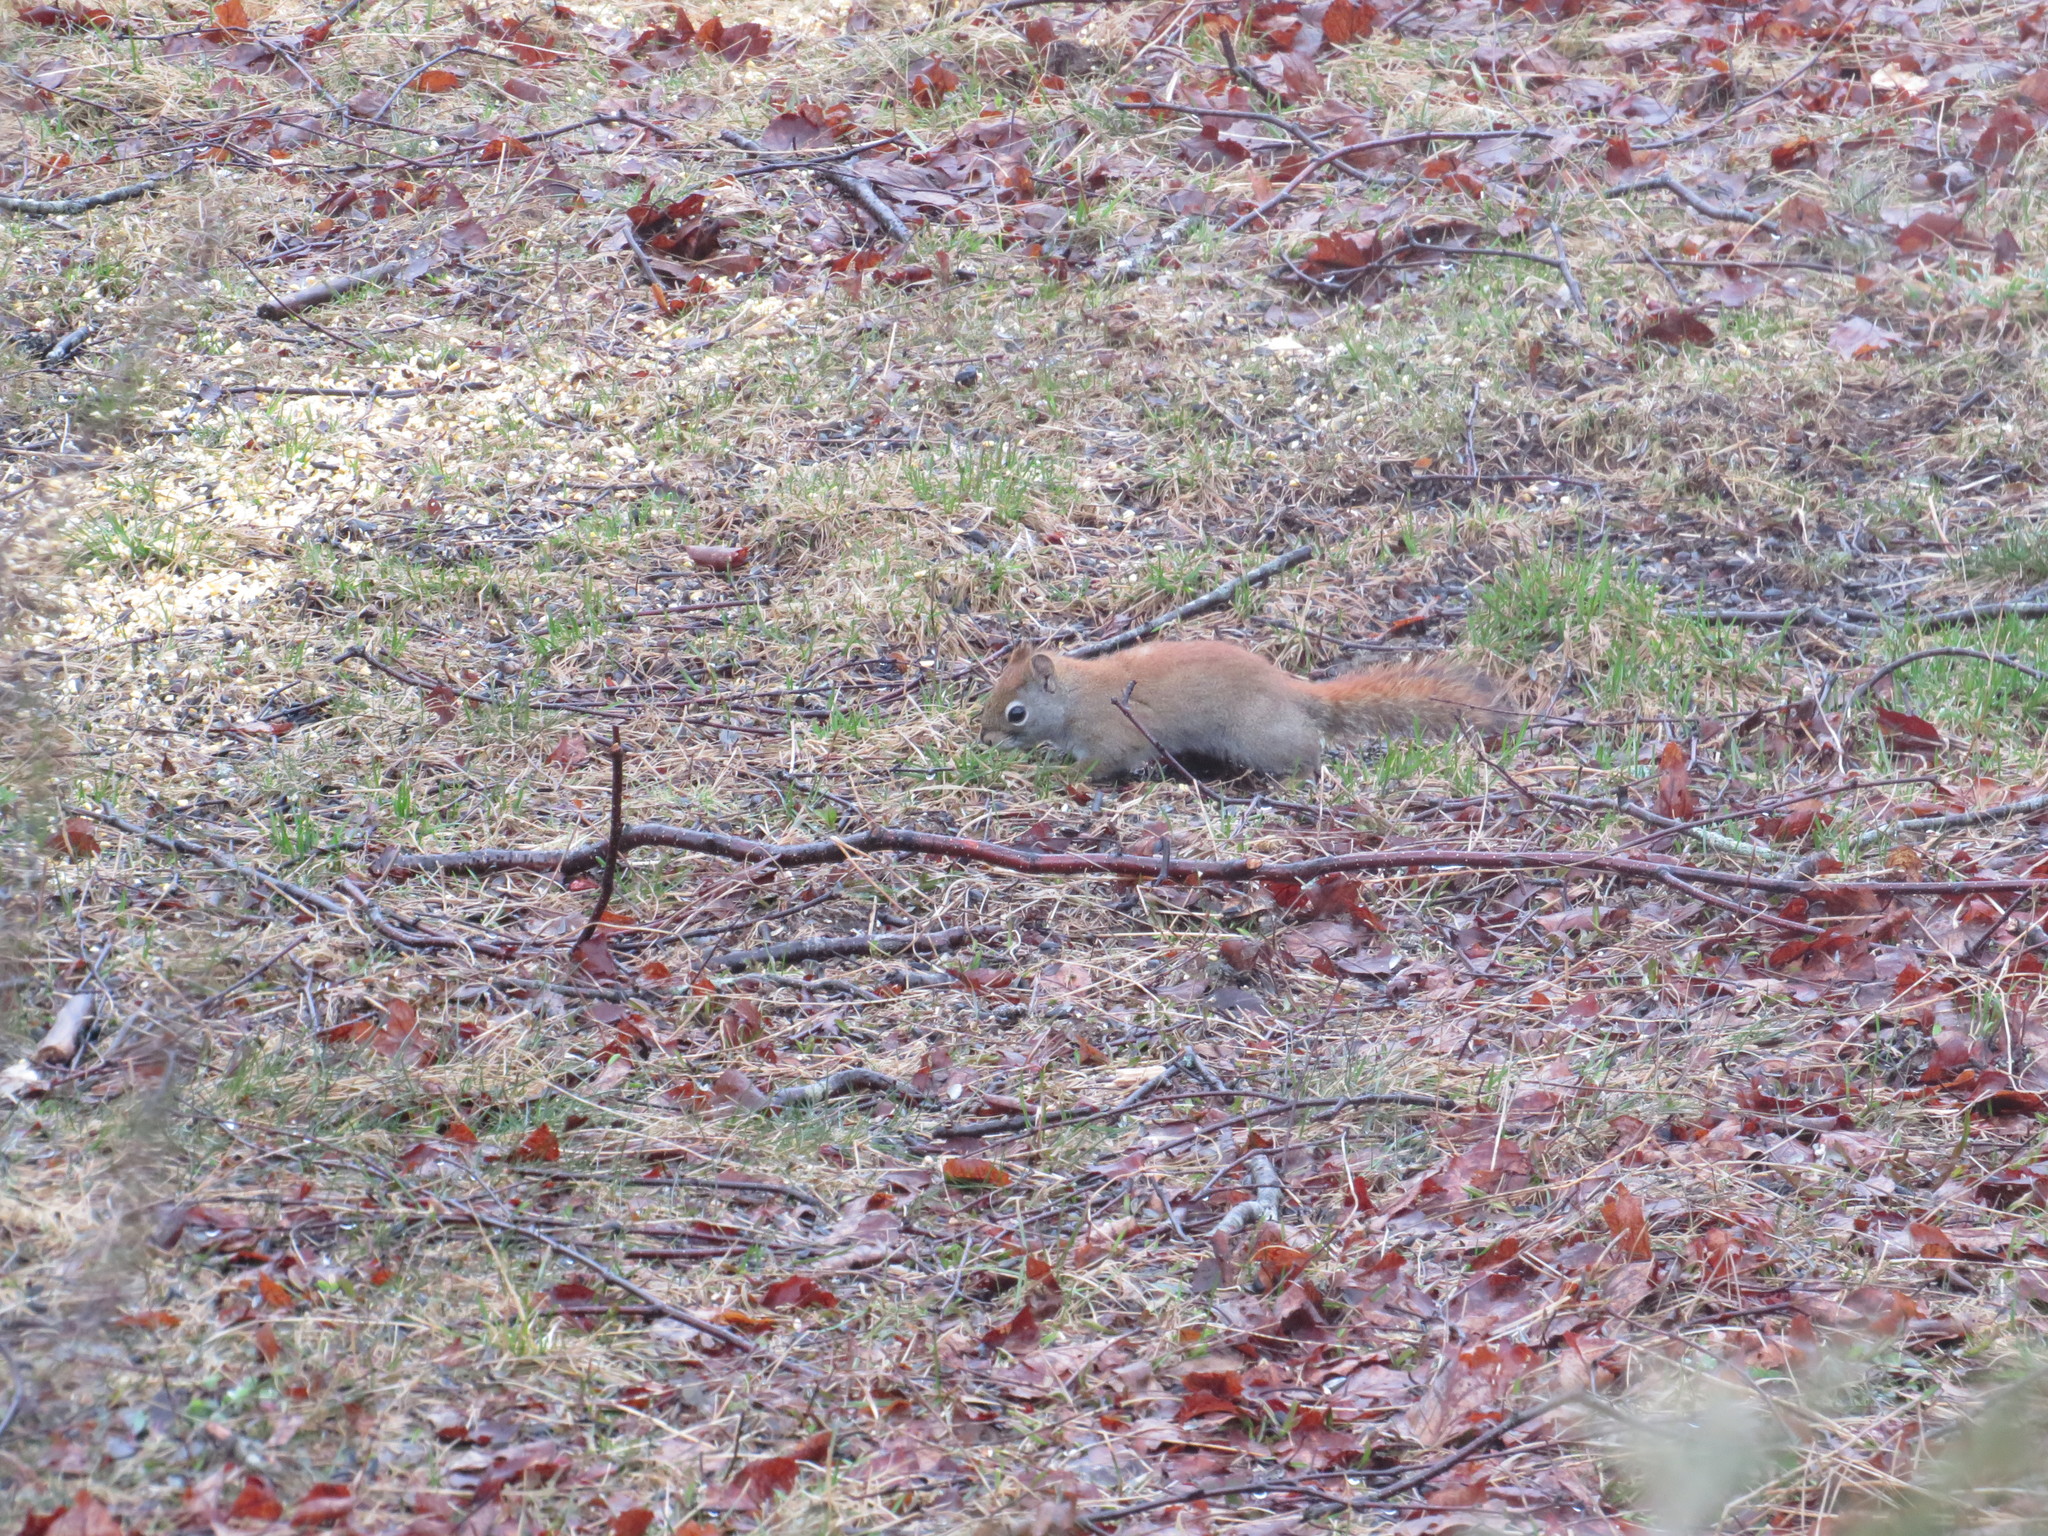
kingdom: Animalia
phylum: Chordata
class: Mammalia
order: Rodentia
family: Sciuridae
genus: Tamiasciurus
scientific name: Tamiasciurus hudsonicus
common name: Red squirrel
